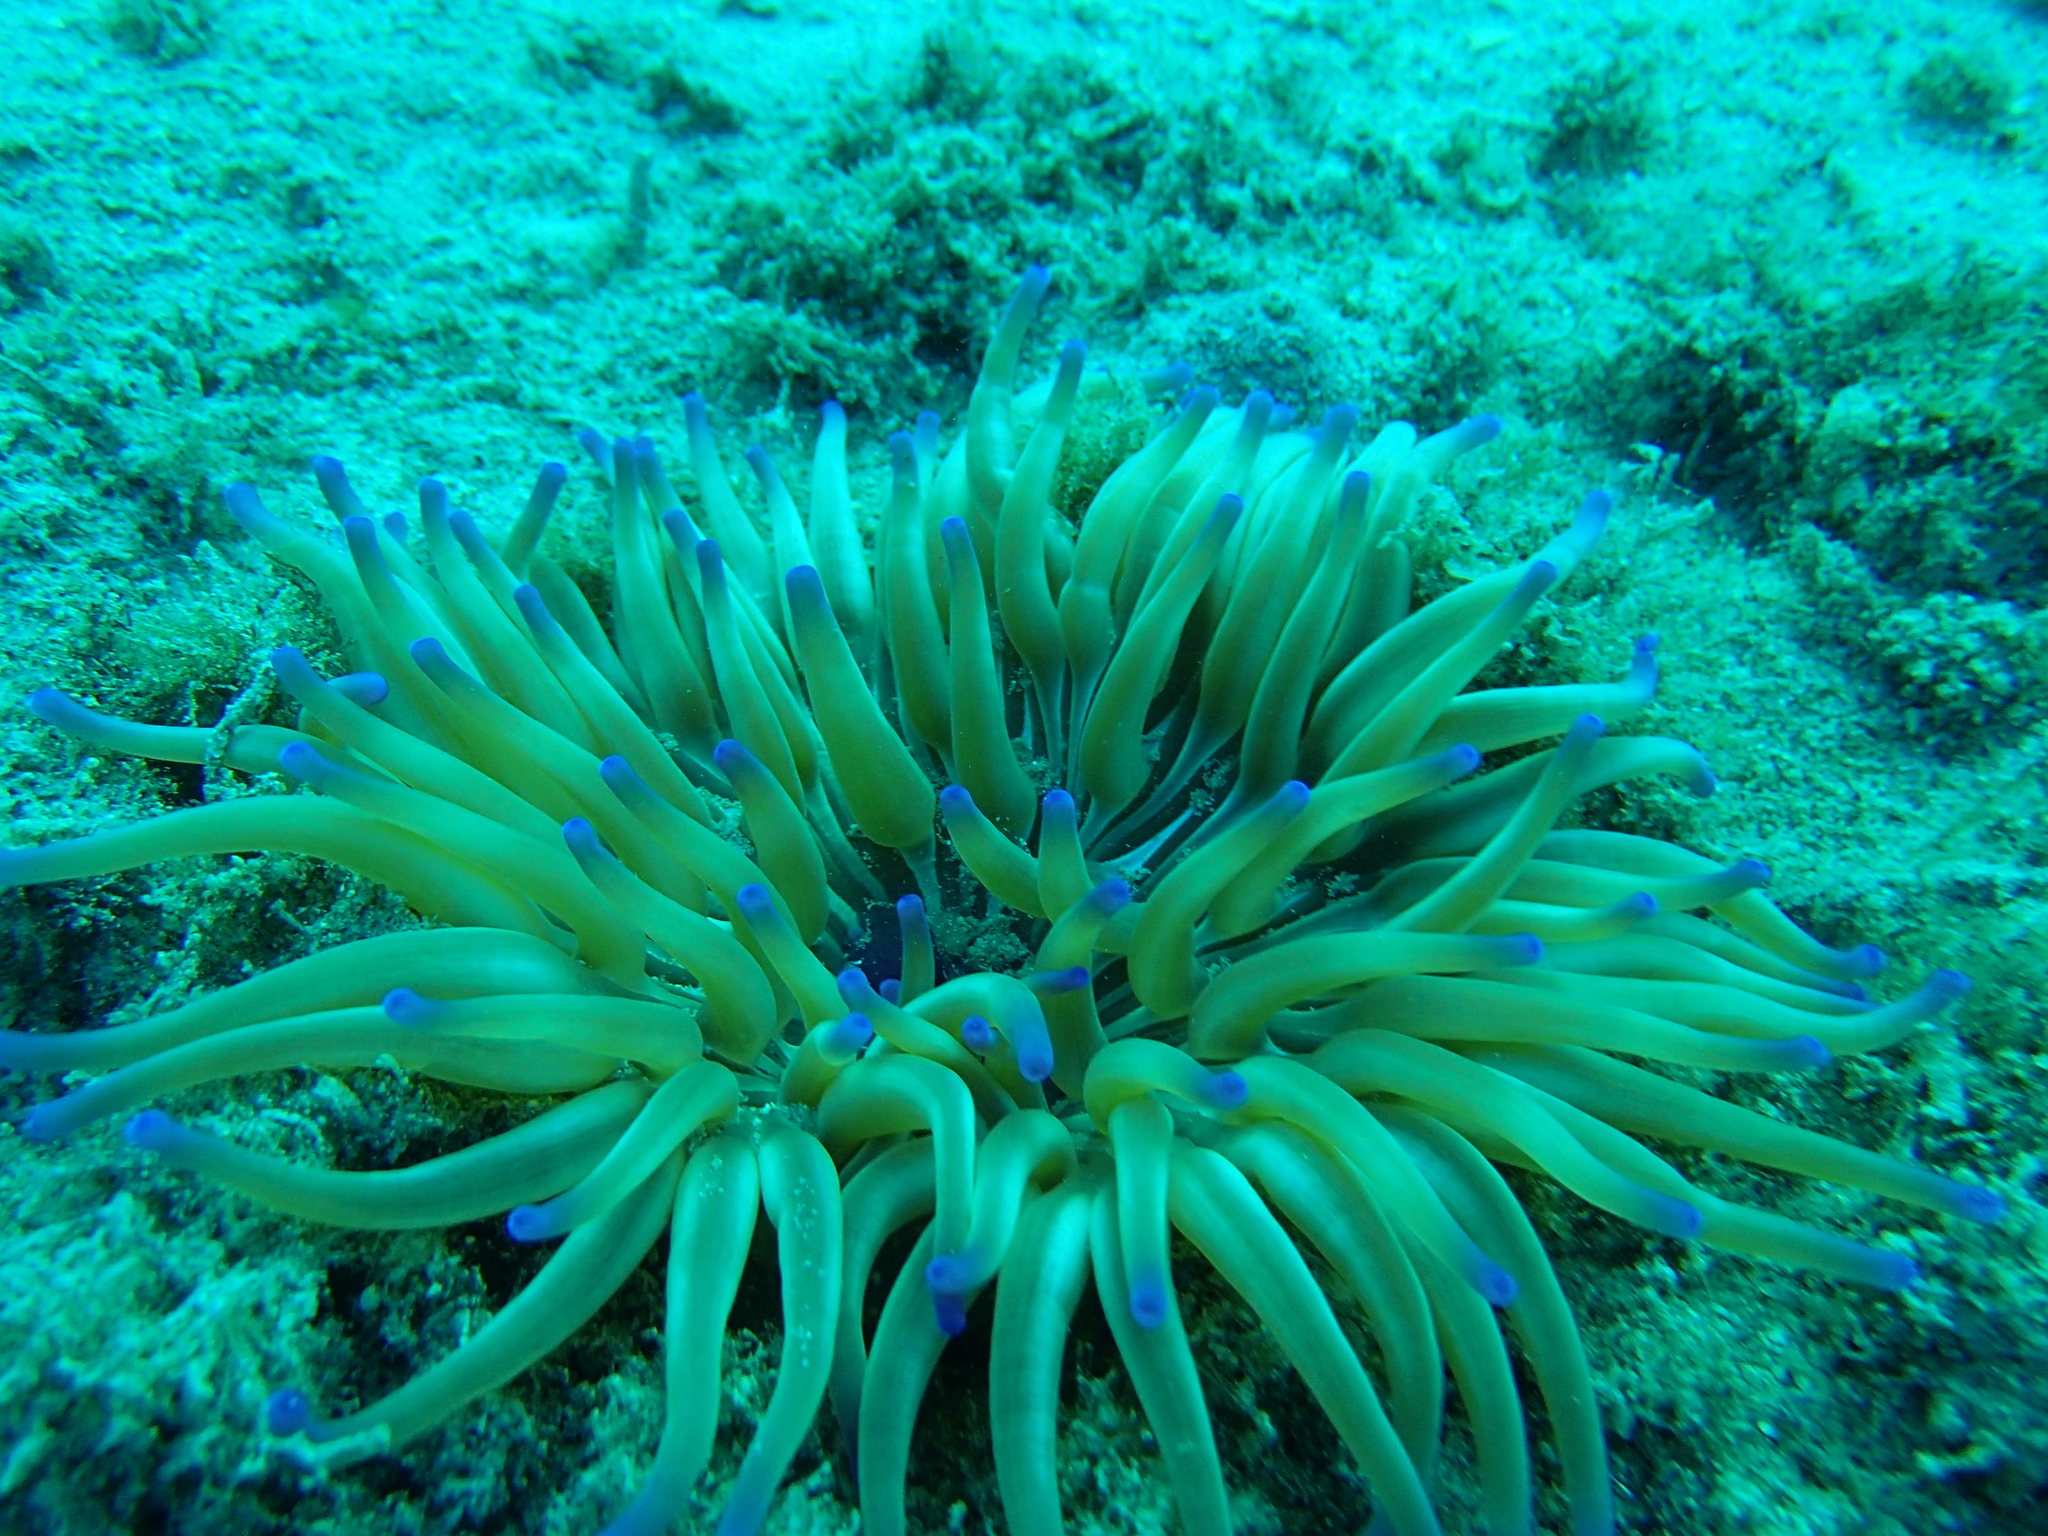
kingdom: Animalia
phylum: Cnidaria
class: Anthozoa
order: Actiniaria
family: Actiniidae
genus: Condylactis
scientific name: Condylactis aurantiaca
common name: Golden anemone
